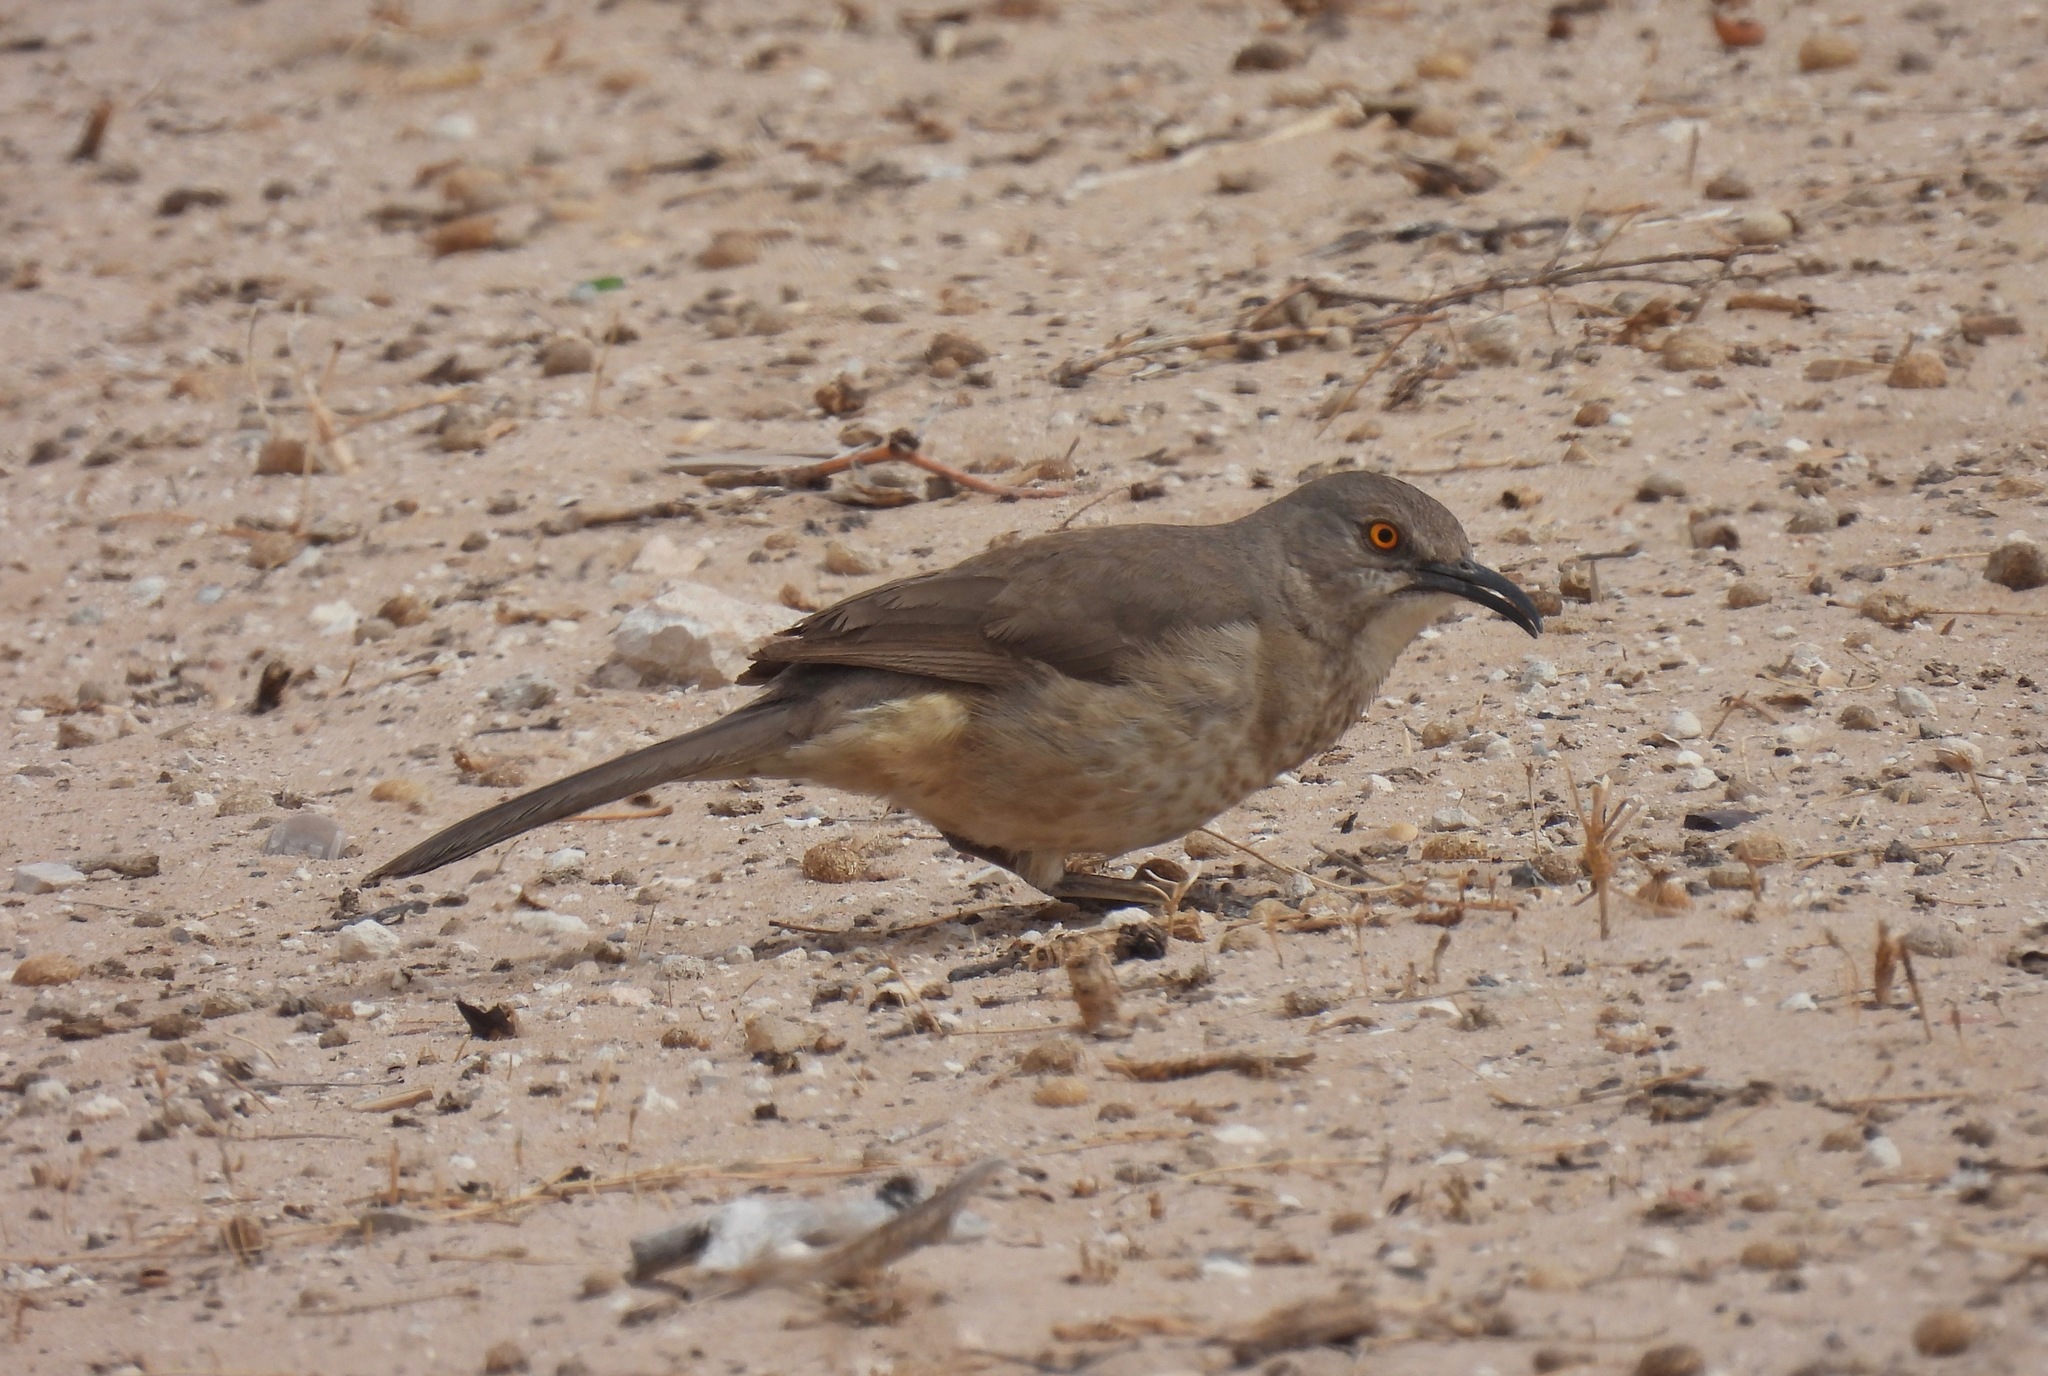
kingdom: Animalia
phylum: Chordata
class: Aves
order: Passeriformes
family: Mimidae
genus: Toxostoma
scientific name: Toxostoma curvirostre
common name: Curve-billed thrasher
